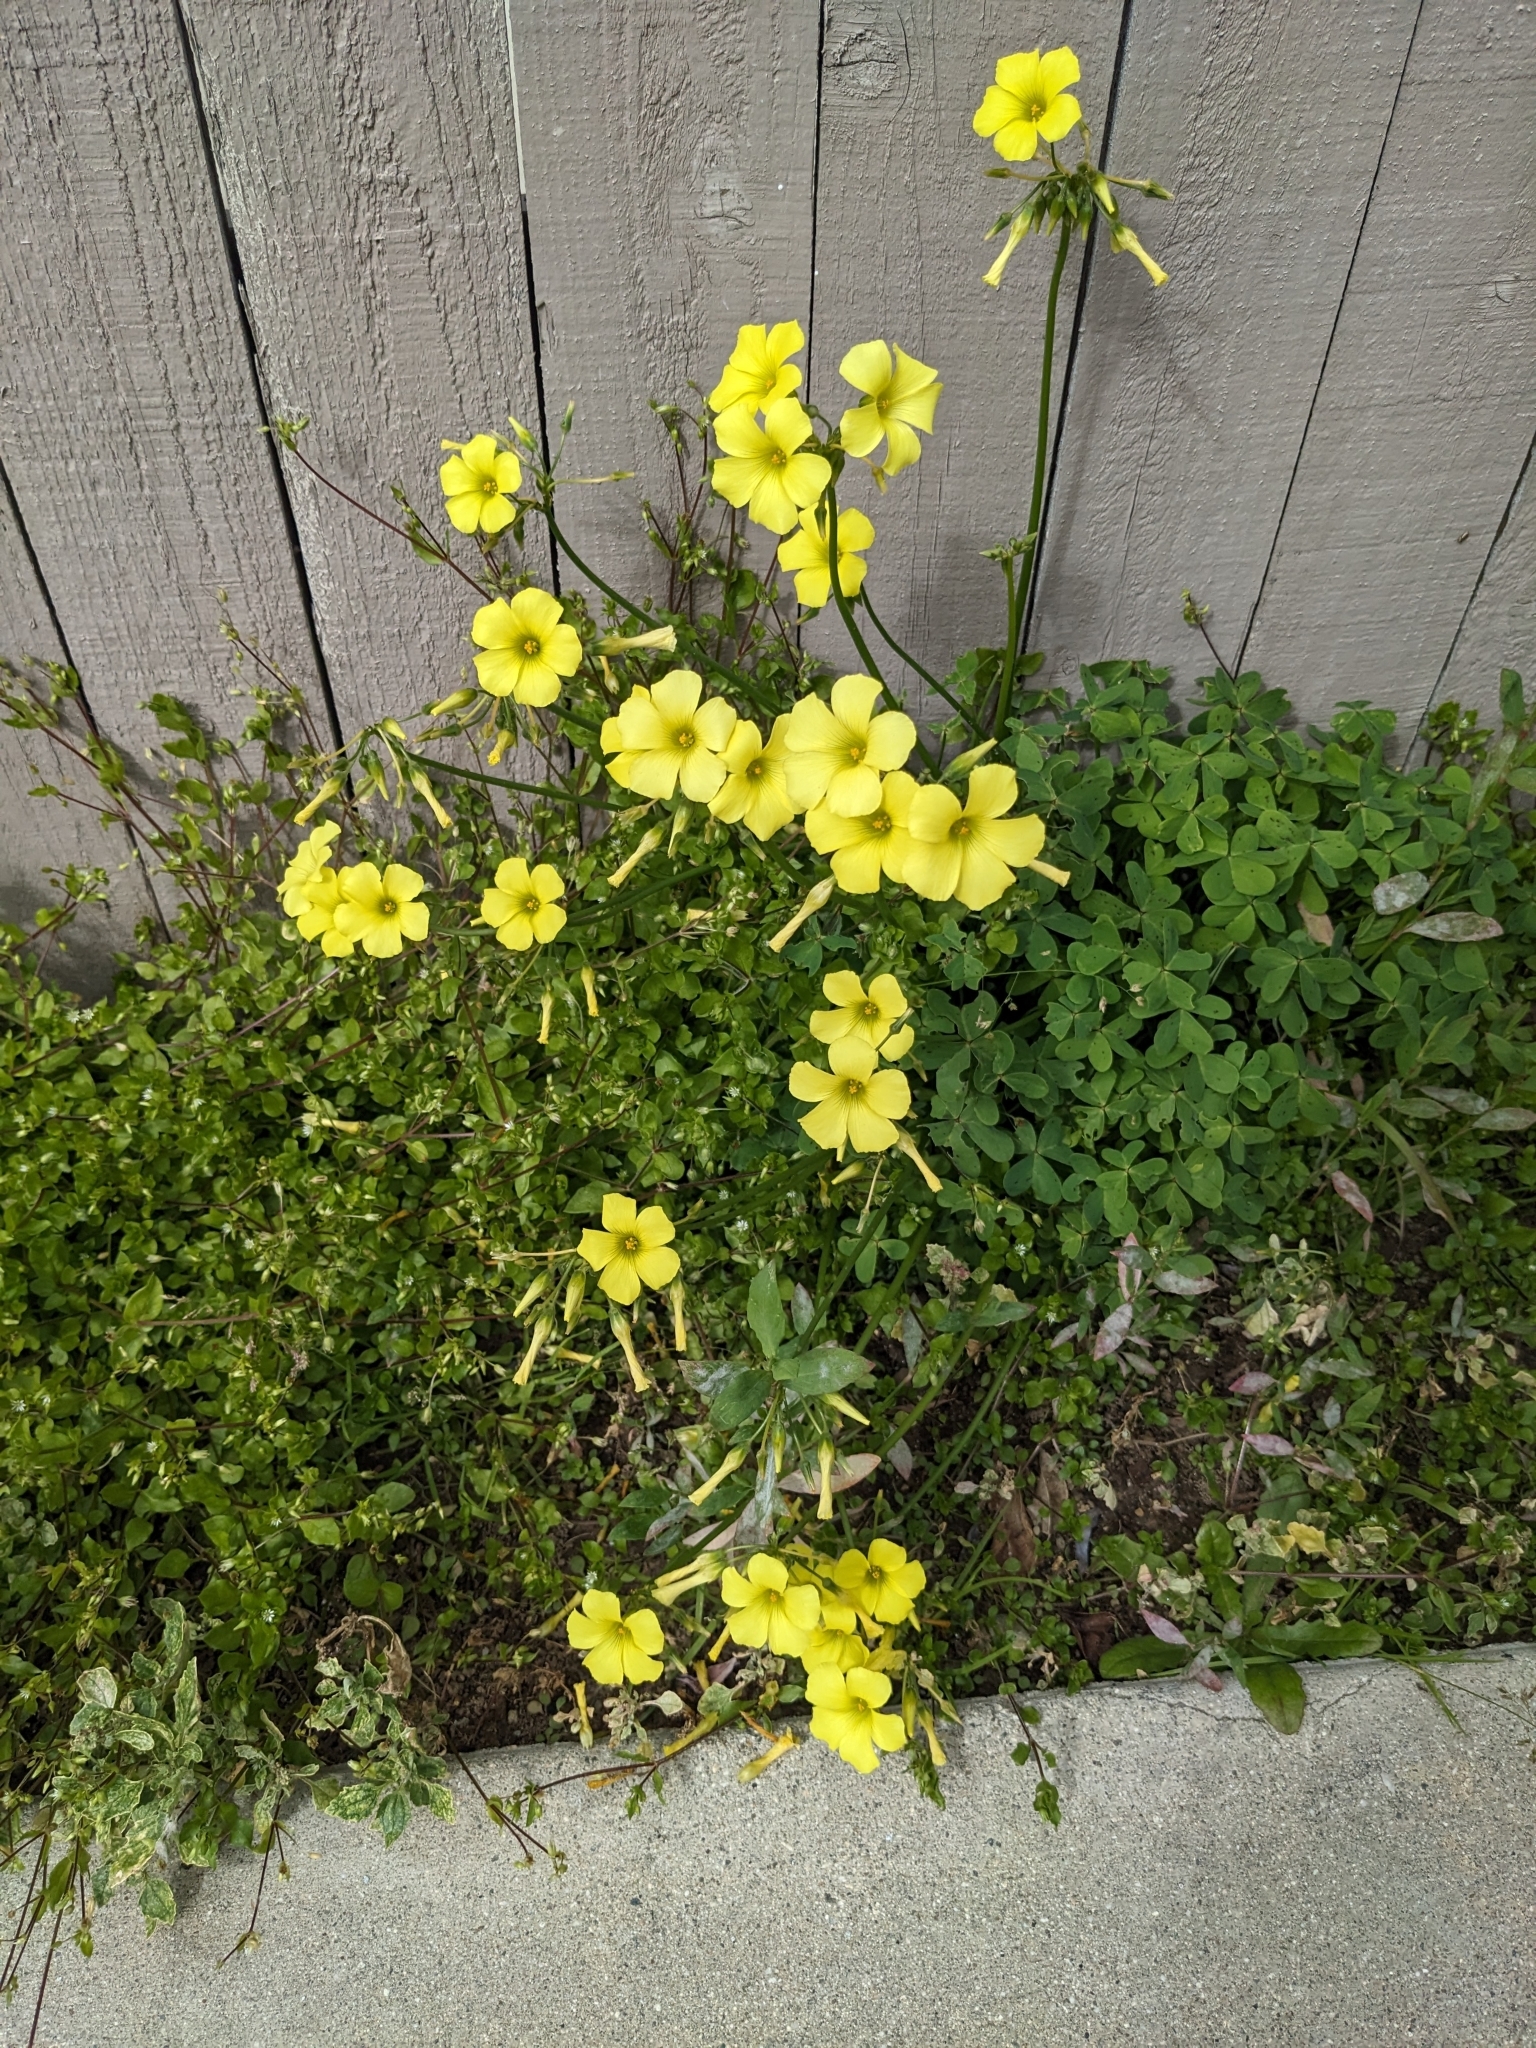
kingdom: Plantae
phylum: Tracheophyta
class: Magnoliopsida
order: Oxalidales
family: Oxalidaceae
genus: Oxalis
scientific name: Oxalis pes-caprae
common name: Bermuda-buttercup
